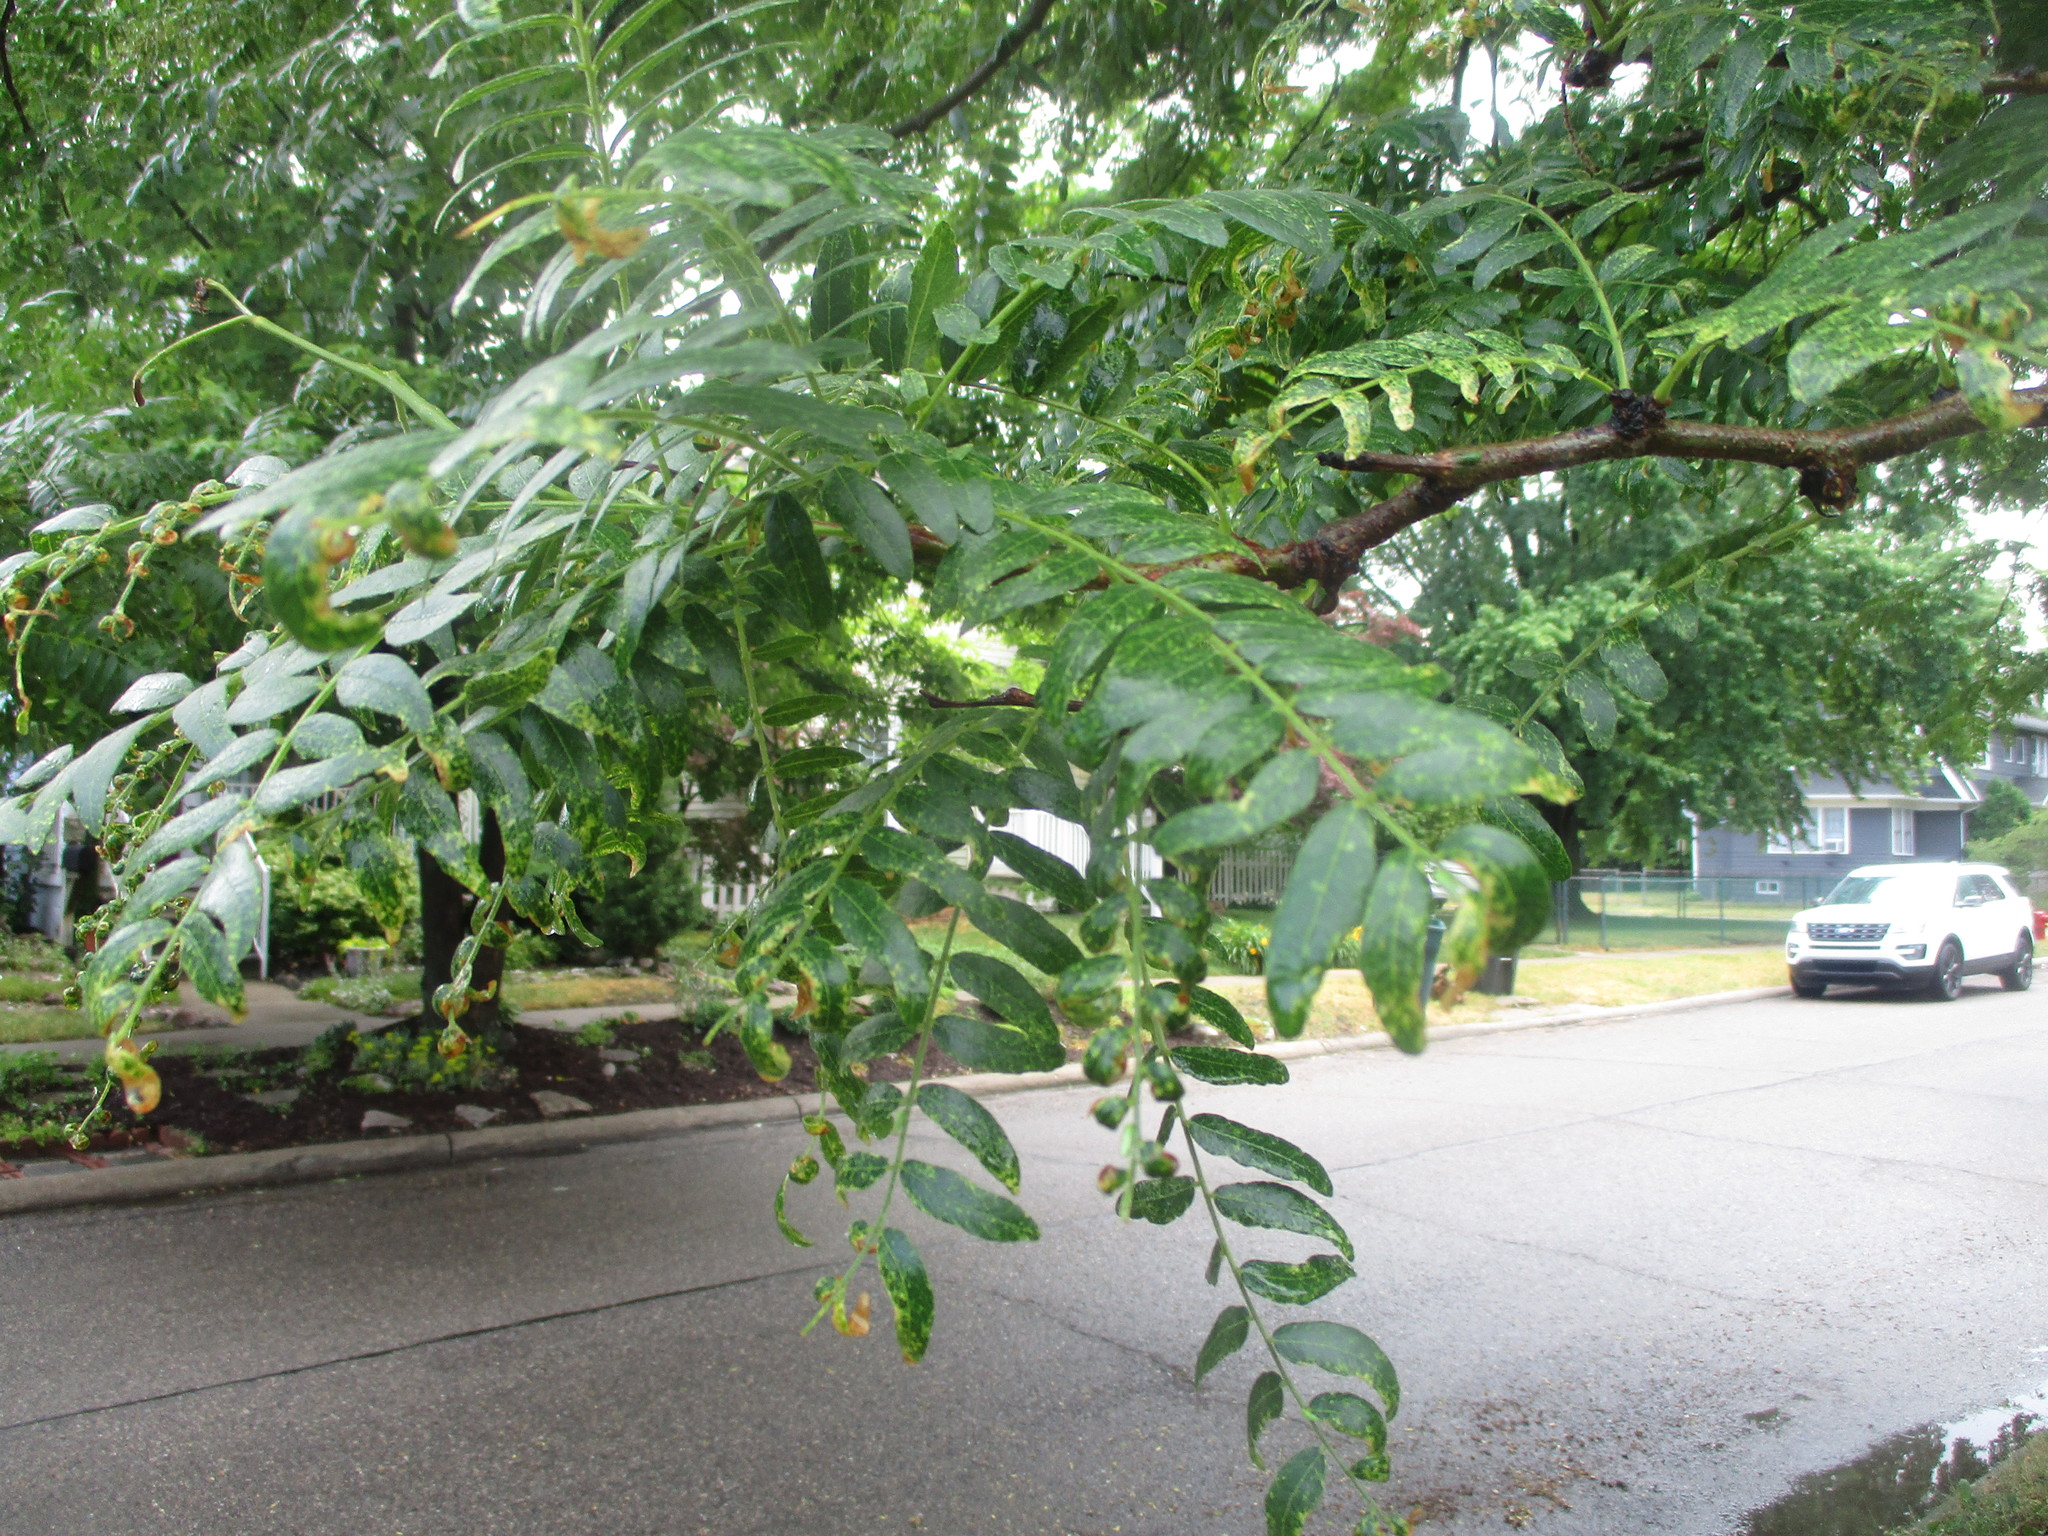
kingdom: Plantae
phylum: Tracheophyta
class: Magnoliopsida
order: Fabales
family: Fabaceae
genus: Gleditsia
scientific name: Gleditsia triacanthos
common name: Common honeylocust
